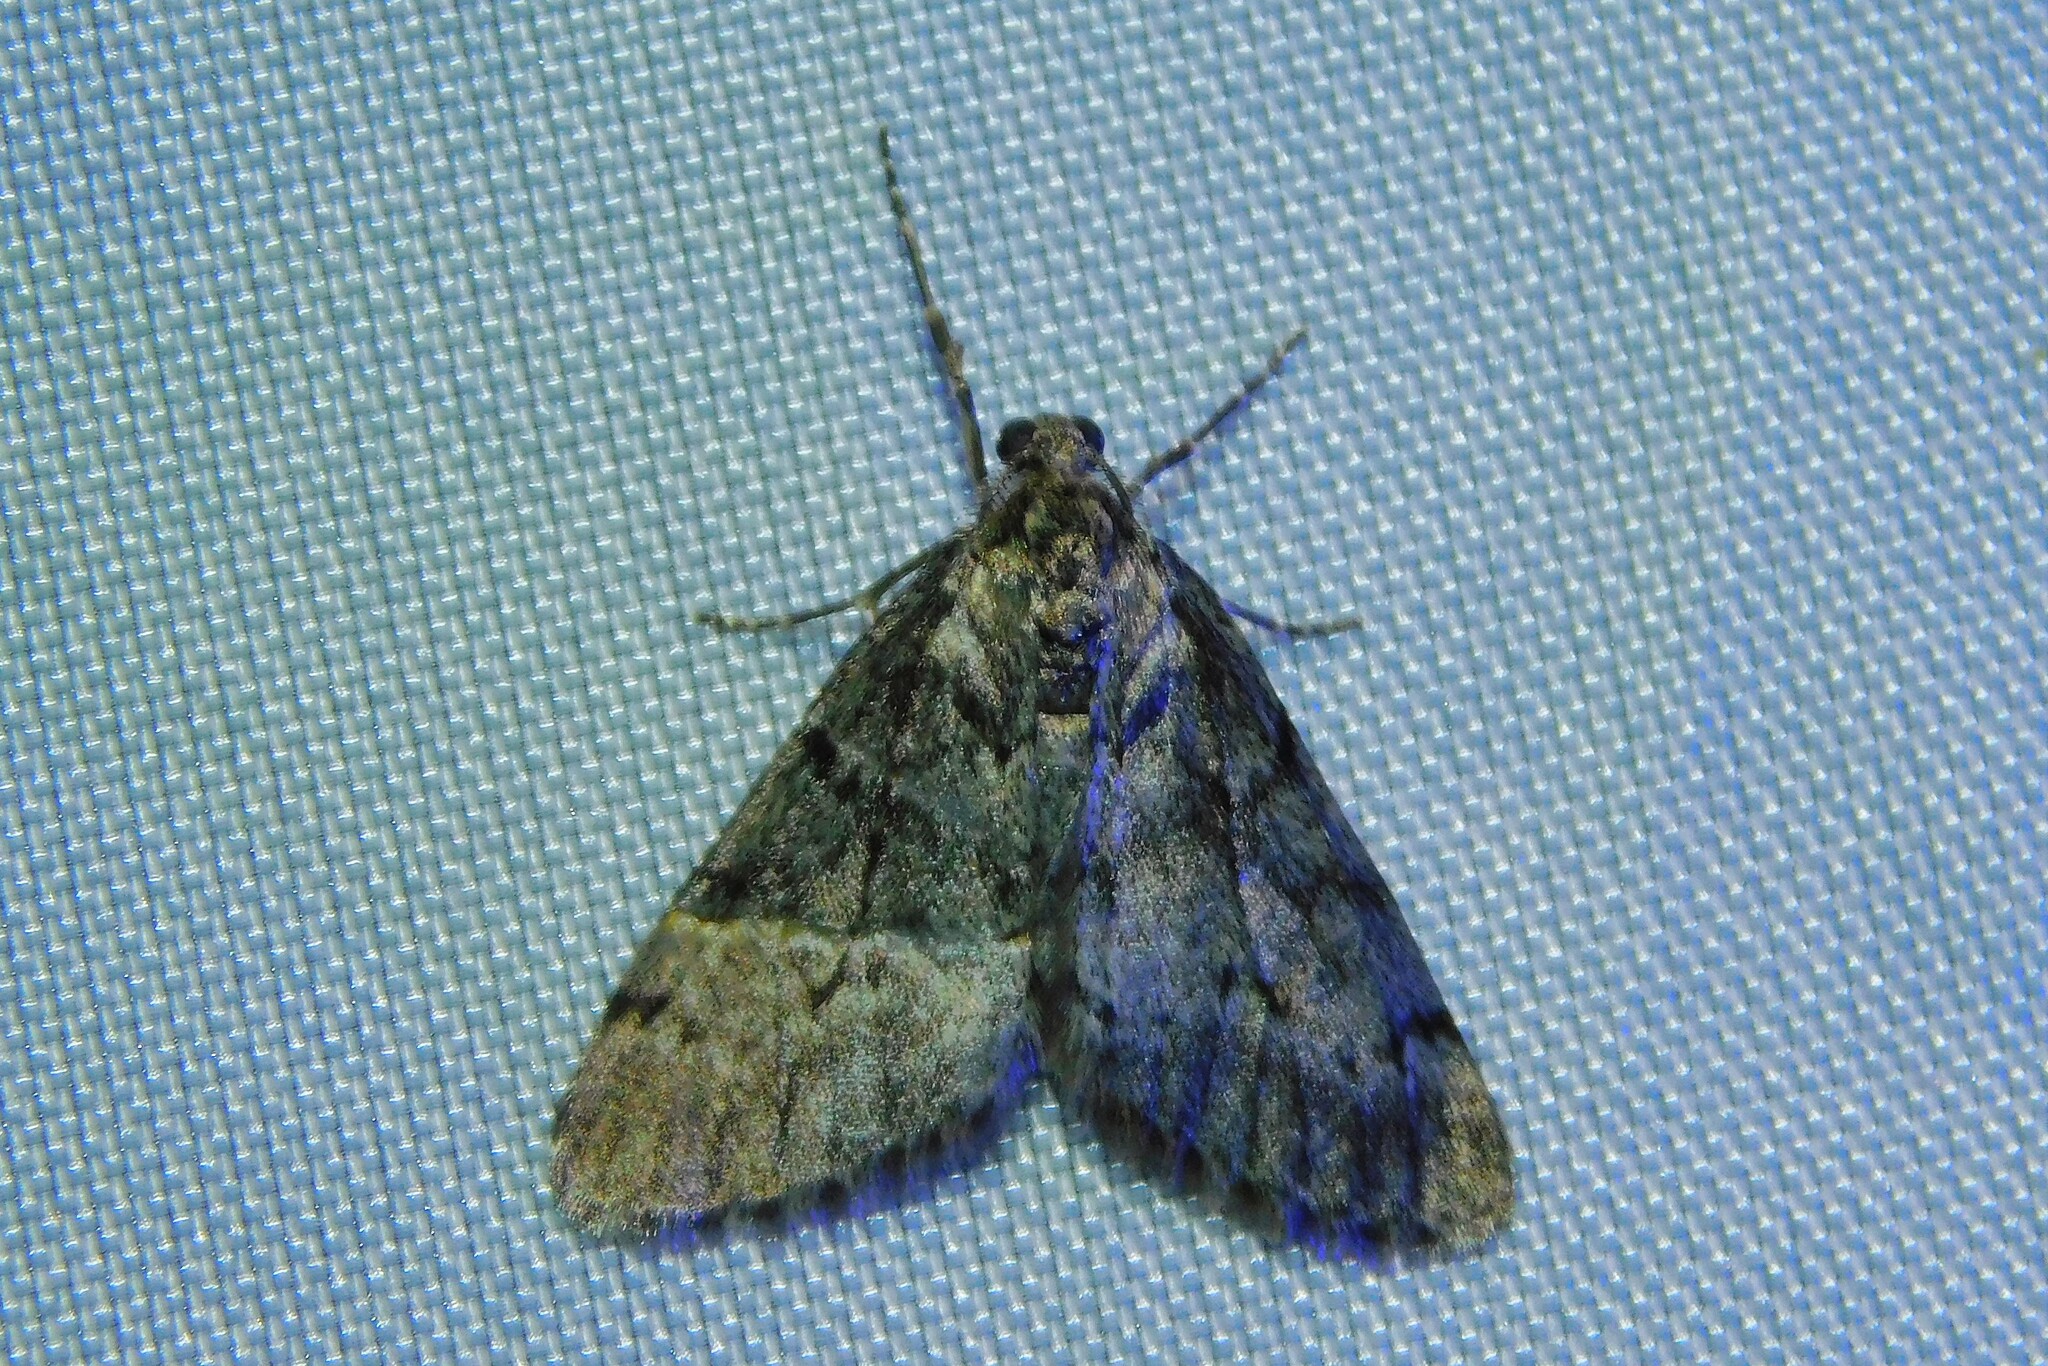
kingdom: Animalia
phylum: Arthropoda
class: Insecta
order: Lepidoptera
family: Geometridae
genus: Tephronia
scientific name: Tephronia sepiaria
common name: Dusky carpet
